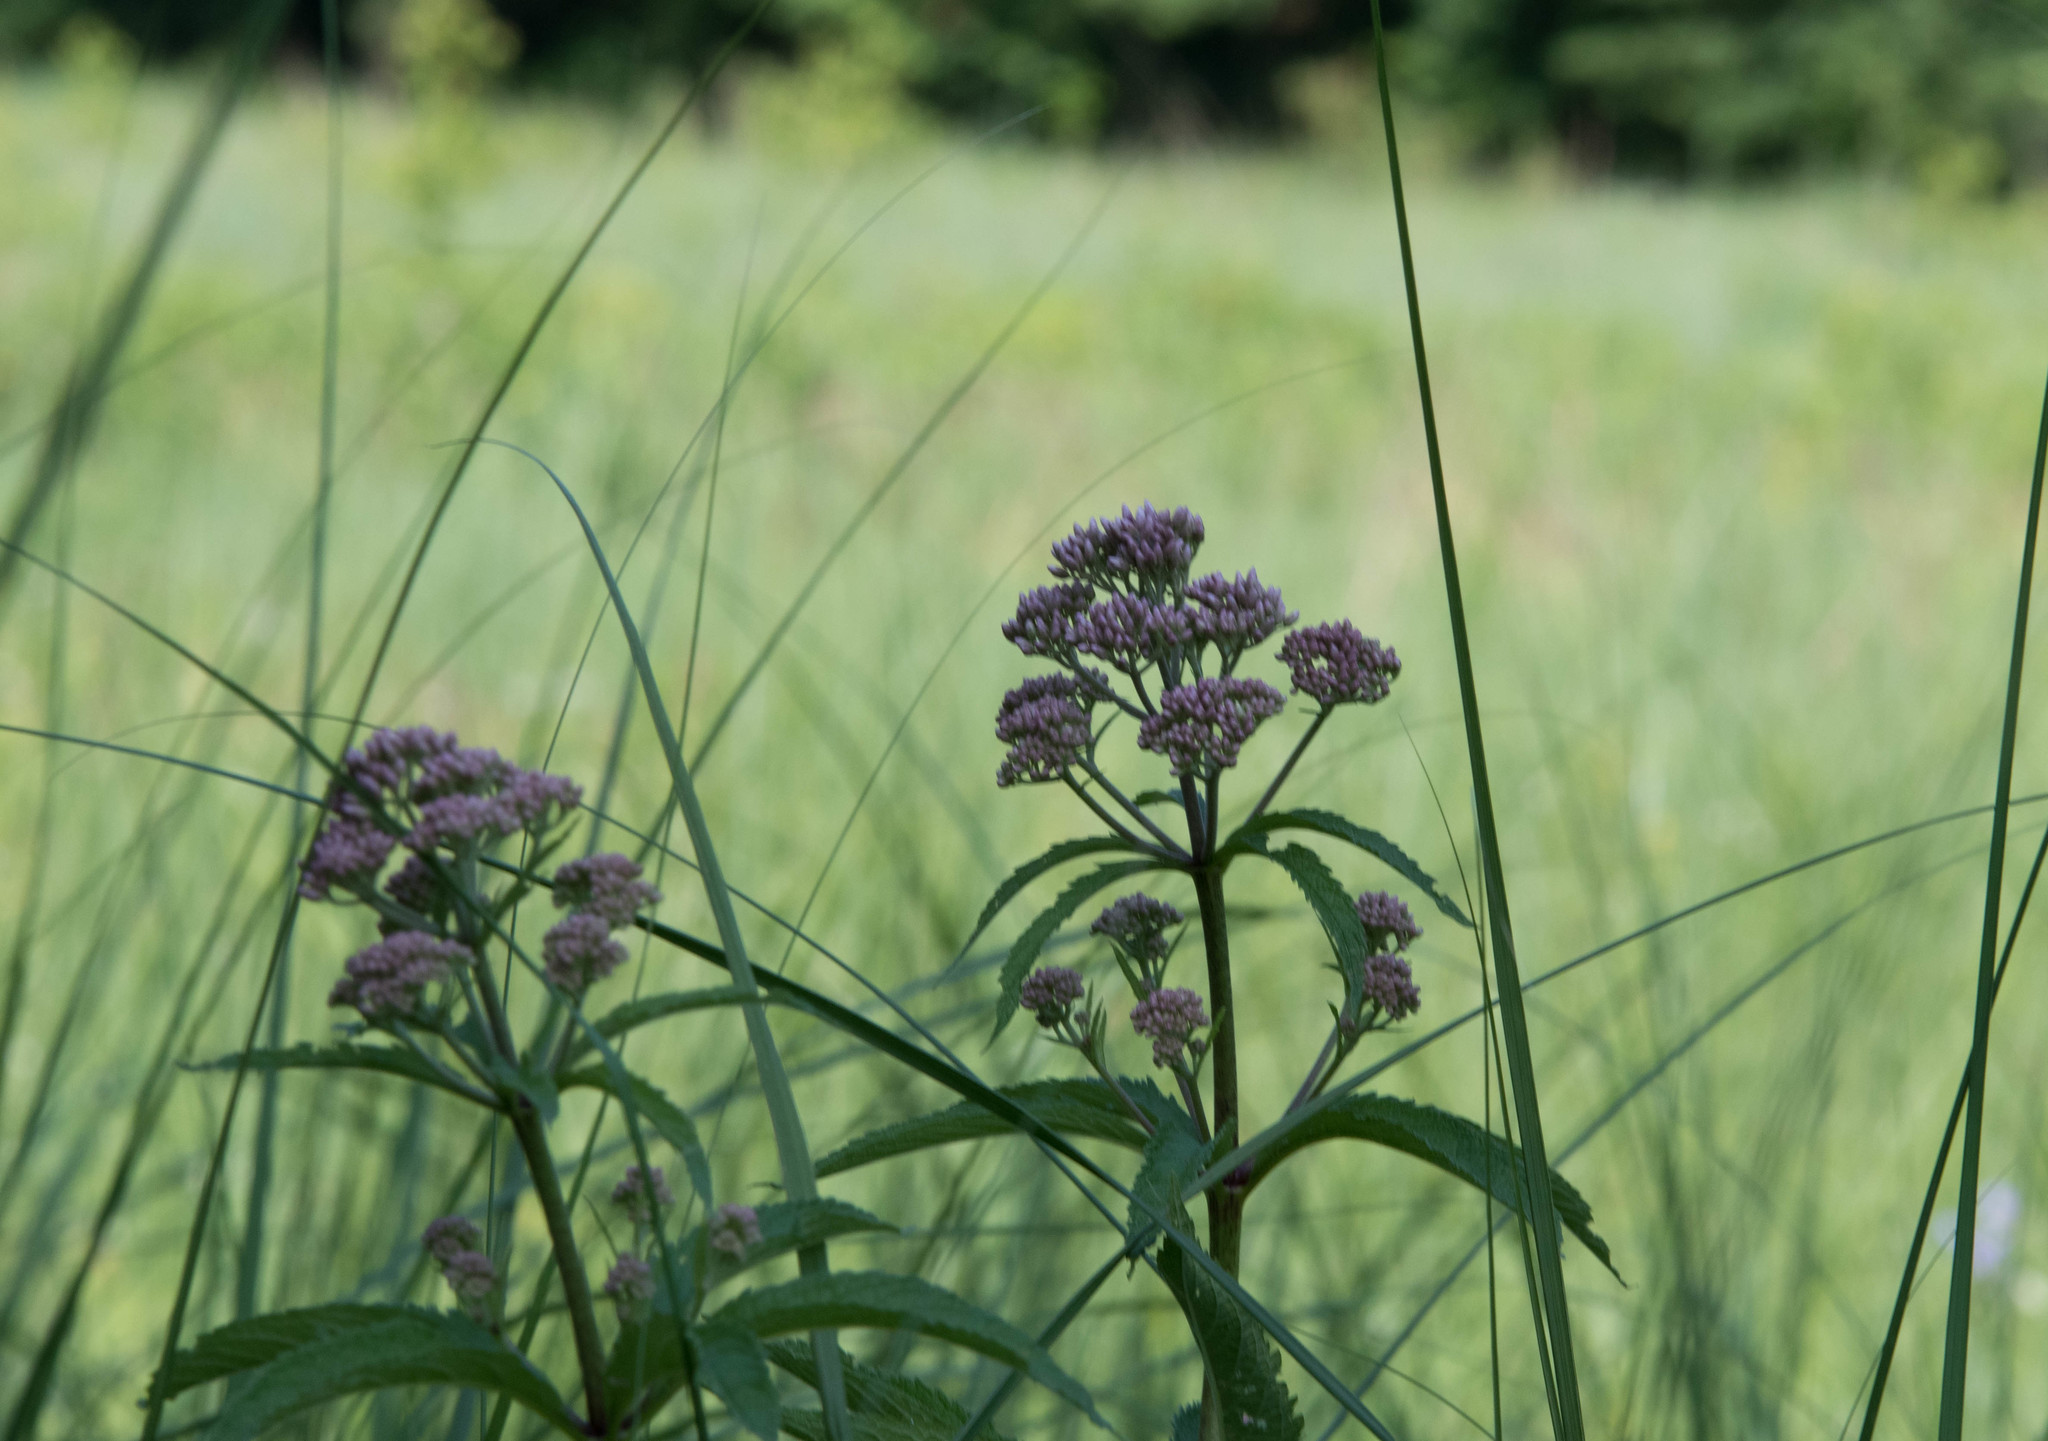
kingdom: Plantae
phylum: Tracheophyta
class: Magnoliopsida
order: Gentianales
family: Apocynaceae
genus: Asclepias
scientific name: Asclepias incarnata
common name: Swamp milkweed
